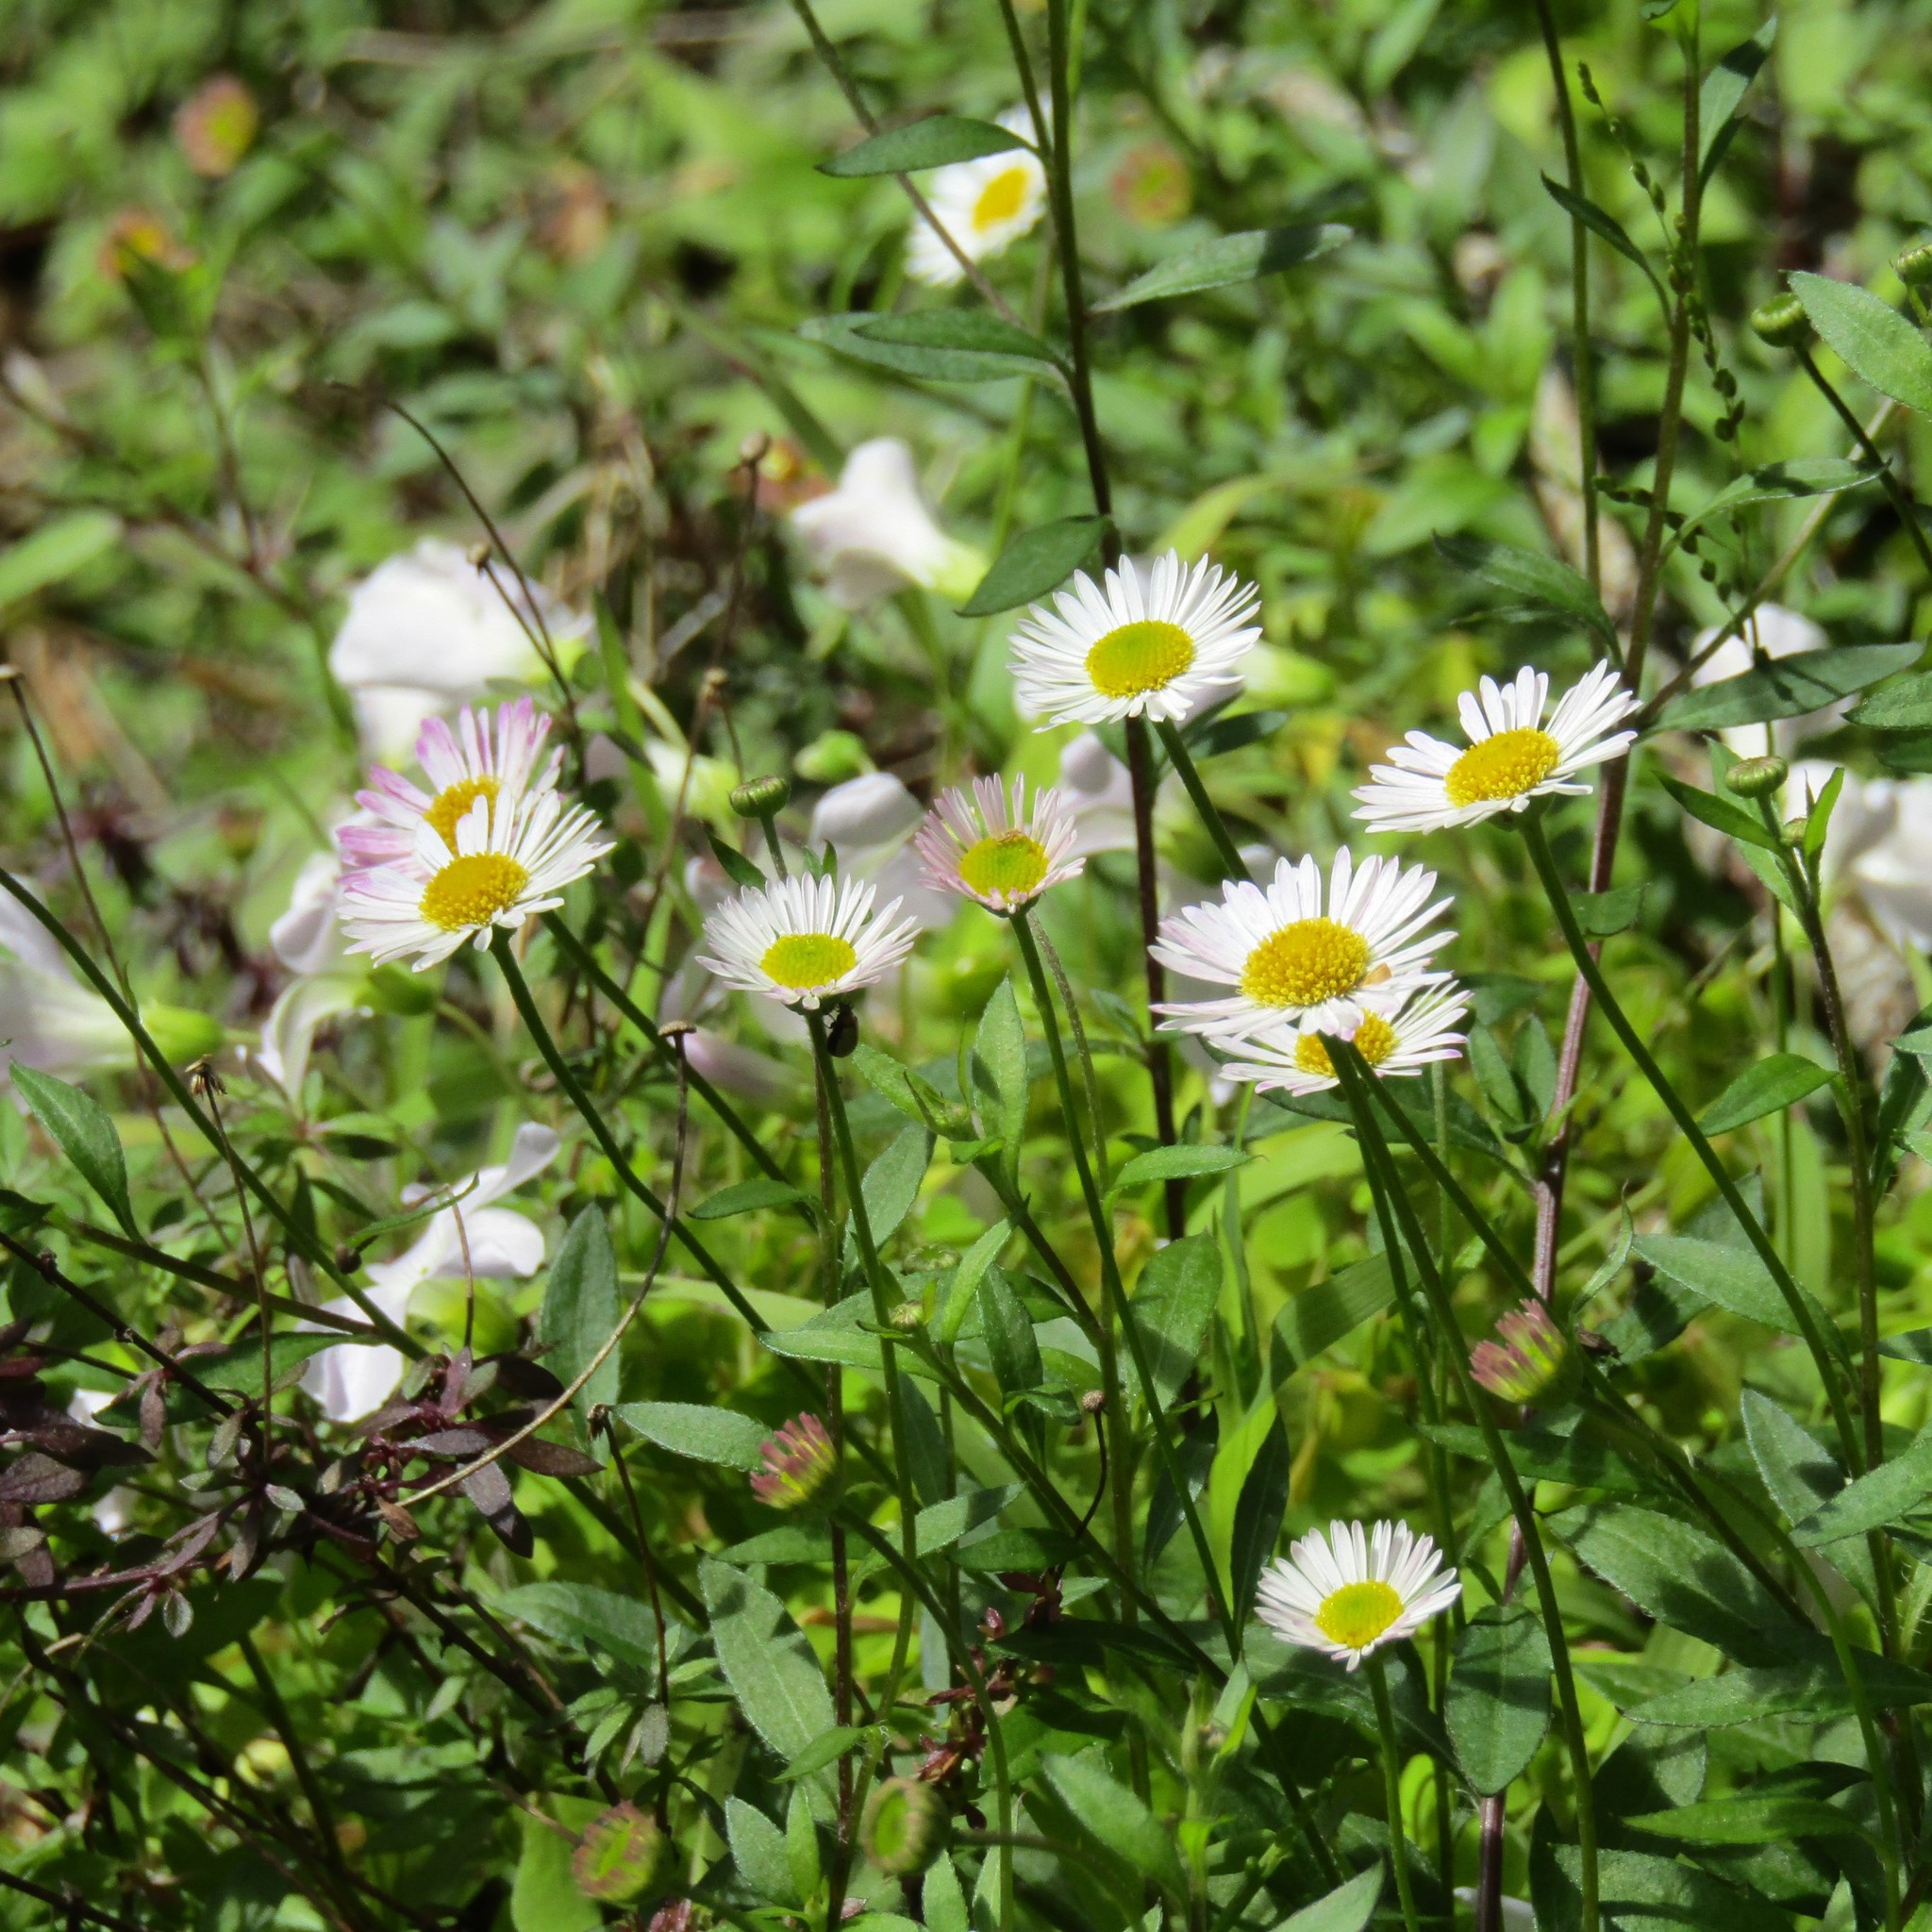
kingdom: Plantae
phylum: Tracheophyta
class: Magnoliopsida
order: Asterales
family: Asteraceae
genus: Erigeron
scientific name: Erigeron karvinskianus
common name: Mexican fleabane
